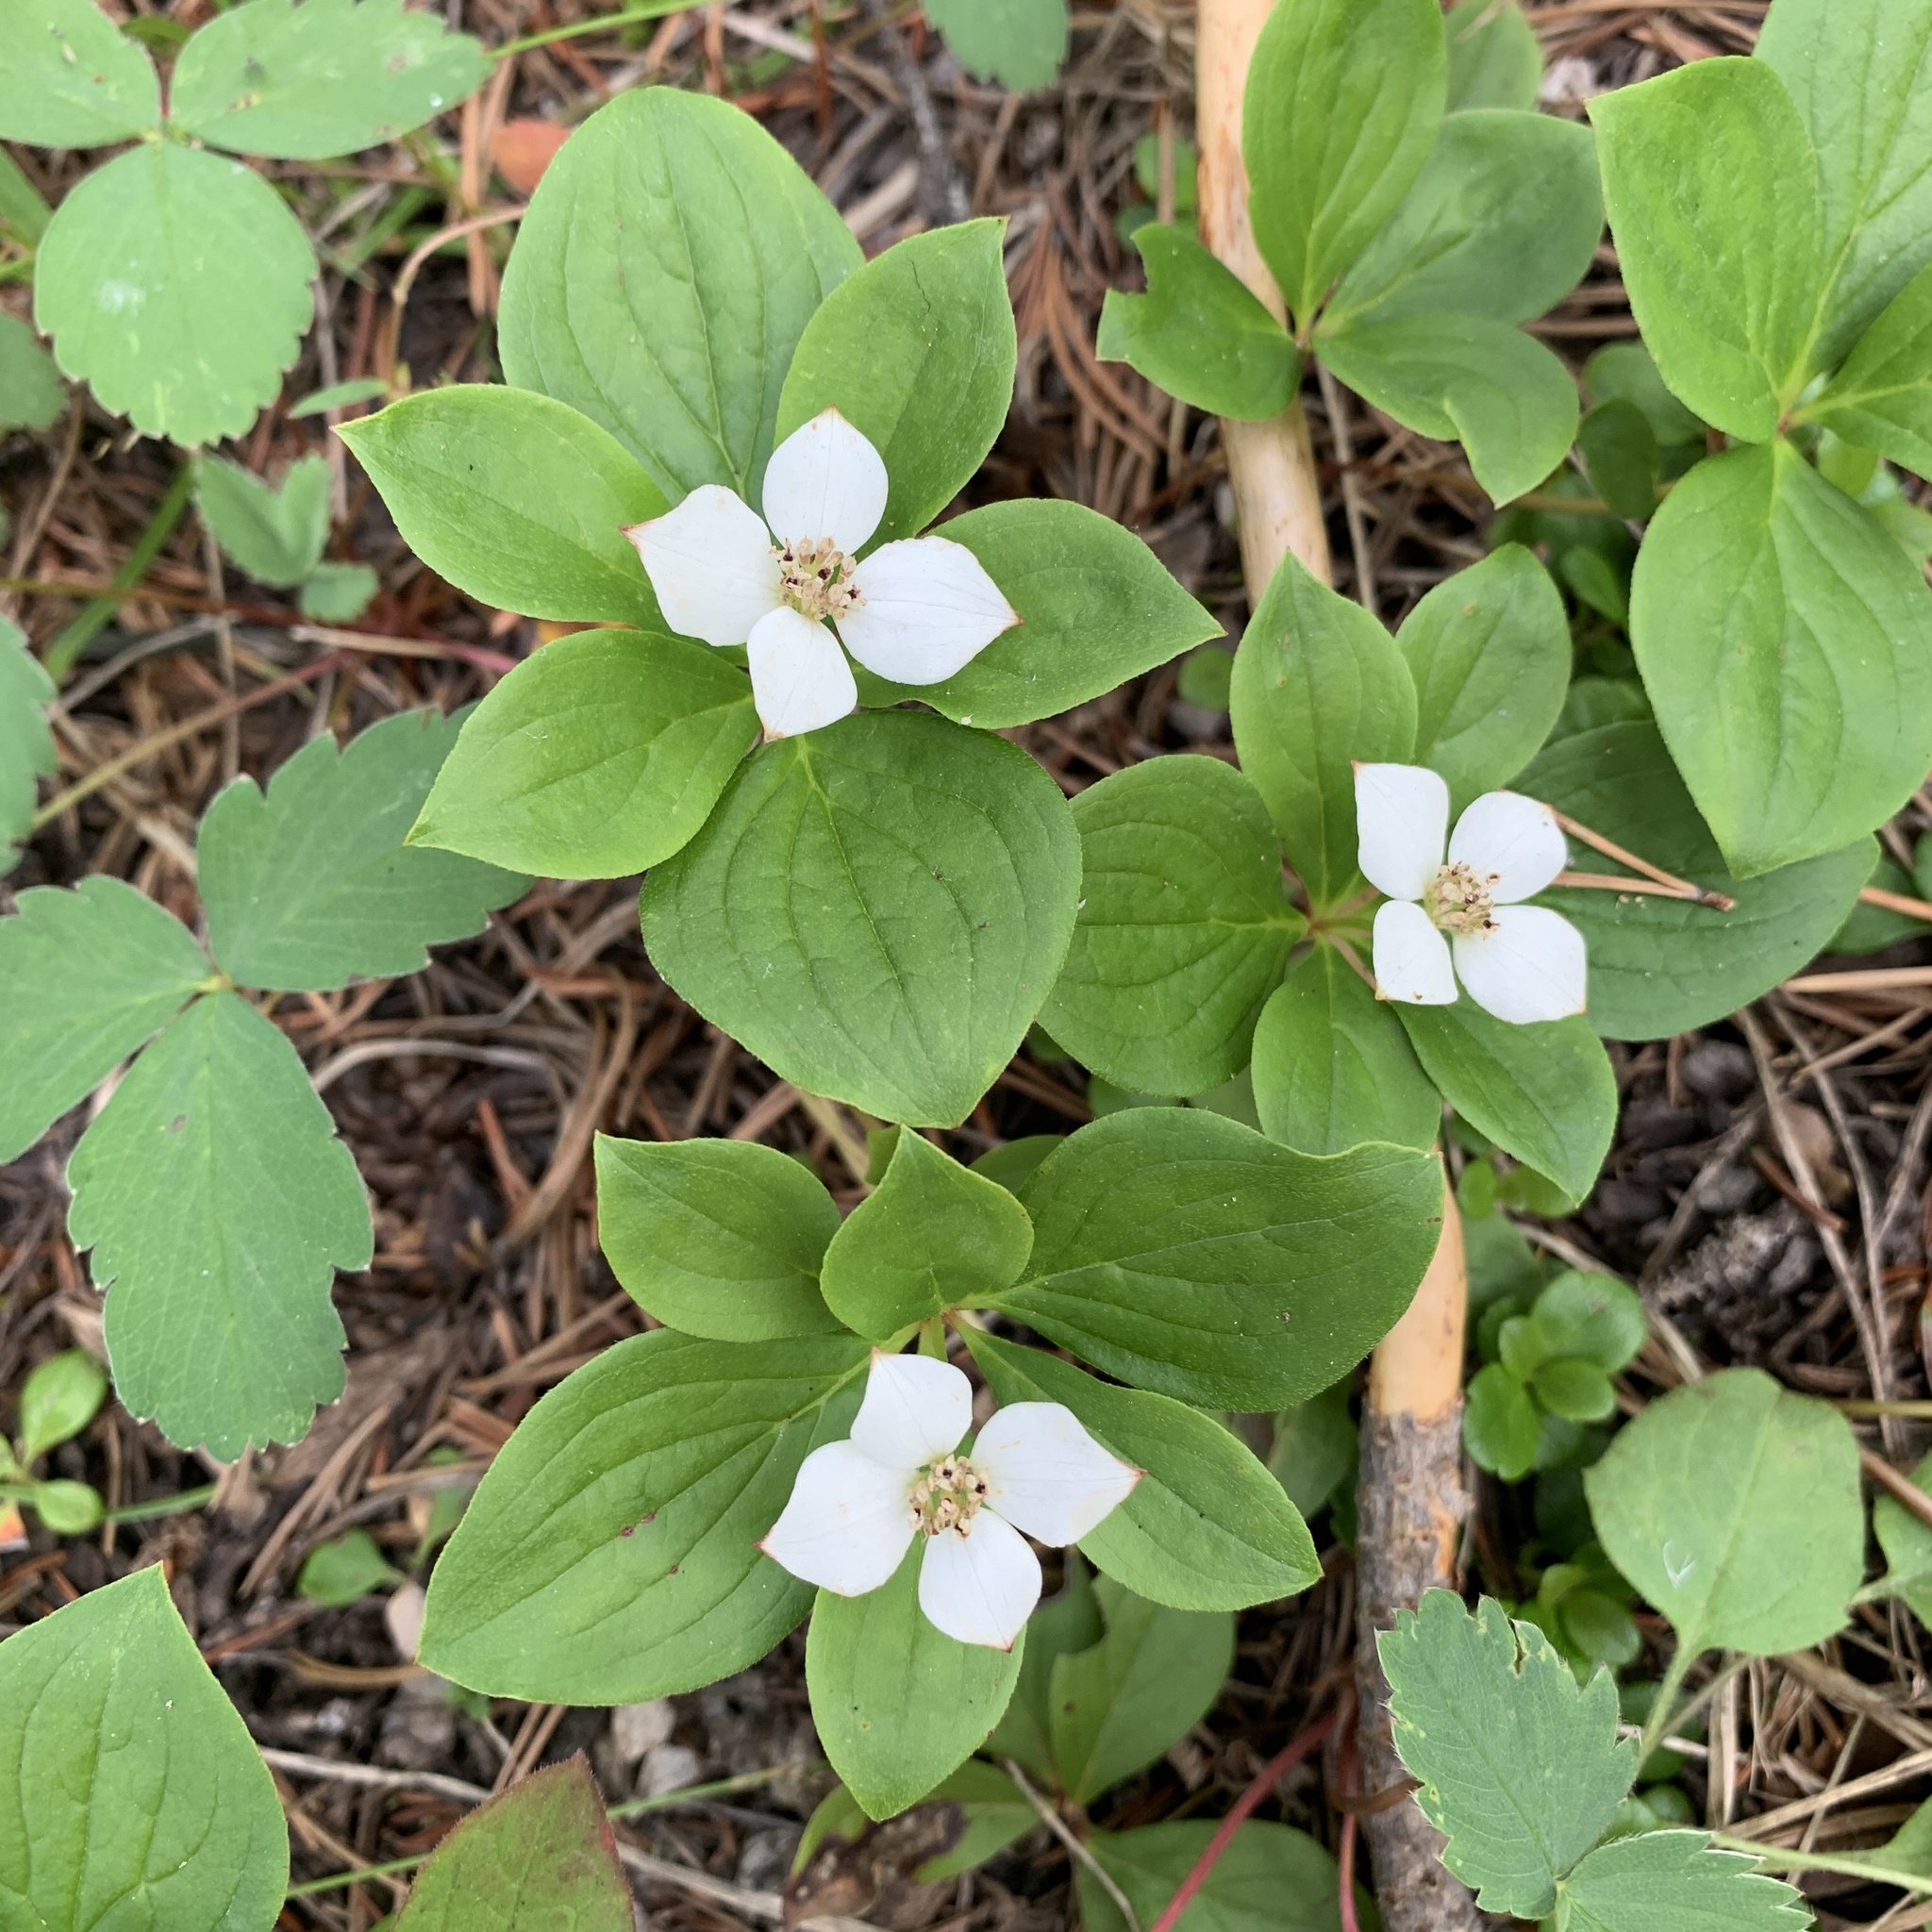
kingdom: Plantae
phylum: Tracheophyta
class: Magnoliopsida
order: Cornales
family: Cornaceae
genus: Cornus
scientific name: Cornus canadensis
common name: Creeping dogwood
